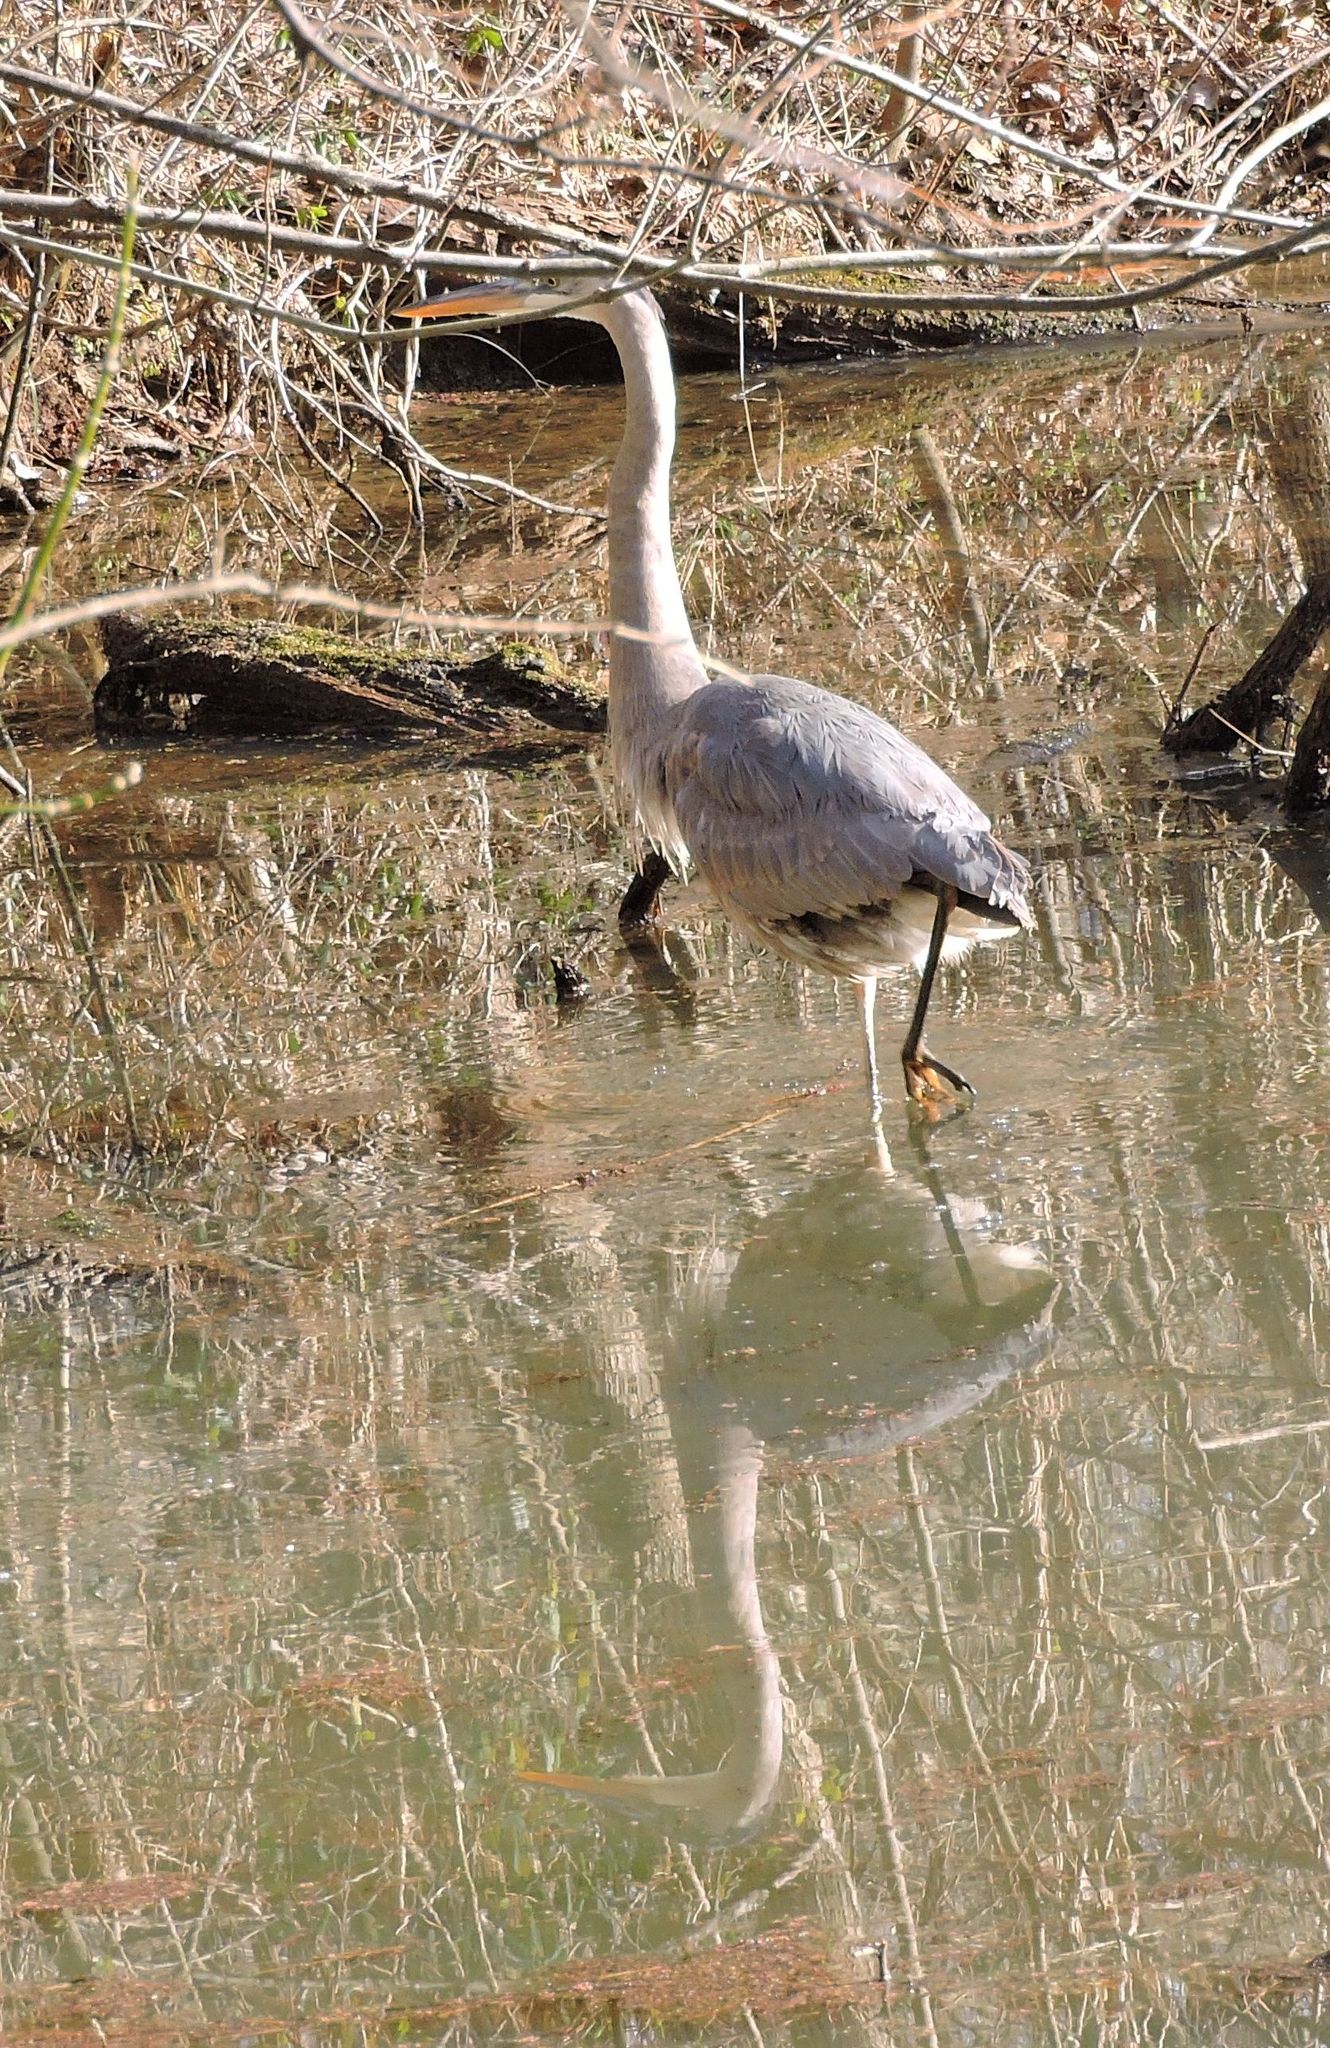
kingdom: Animalia
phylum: Chordata
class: Aves
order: Pelecaniformes
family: Ardeidae
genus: Ardea
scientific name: Ardea herodias
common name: Great blue heron
